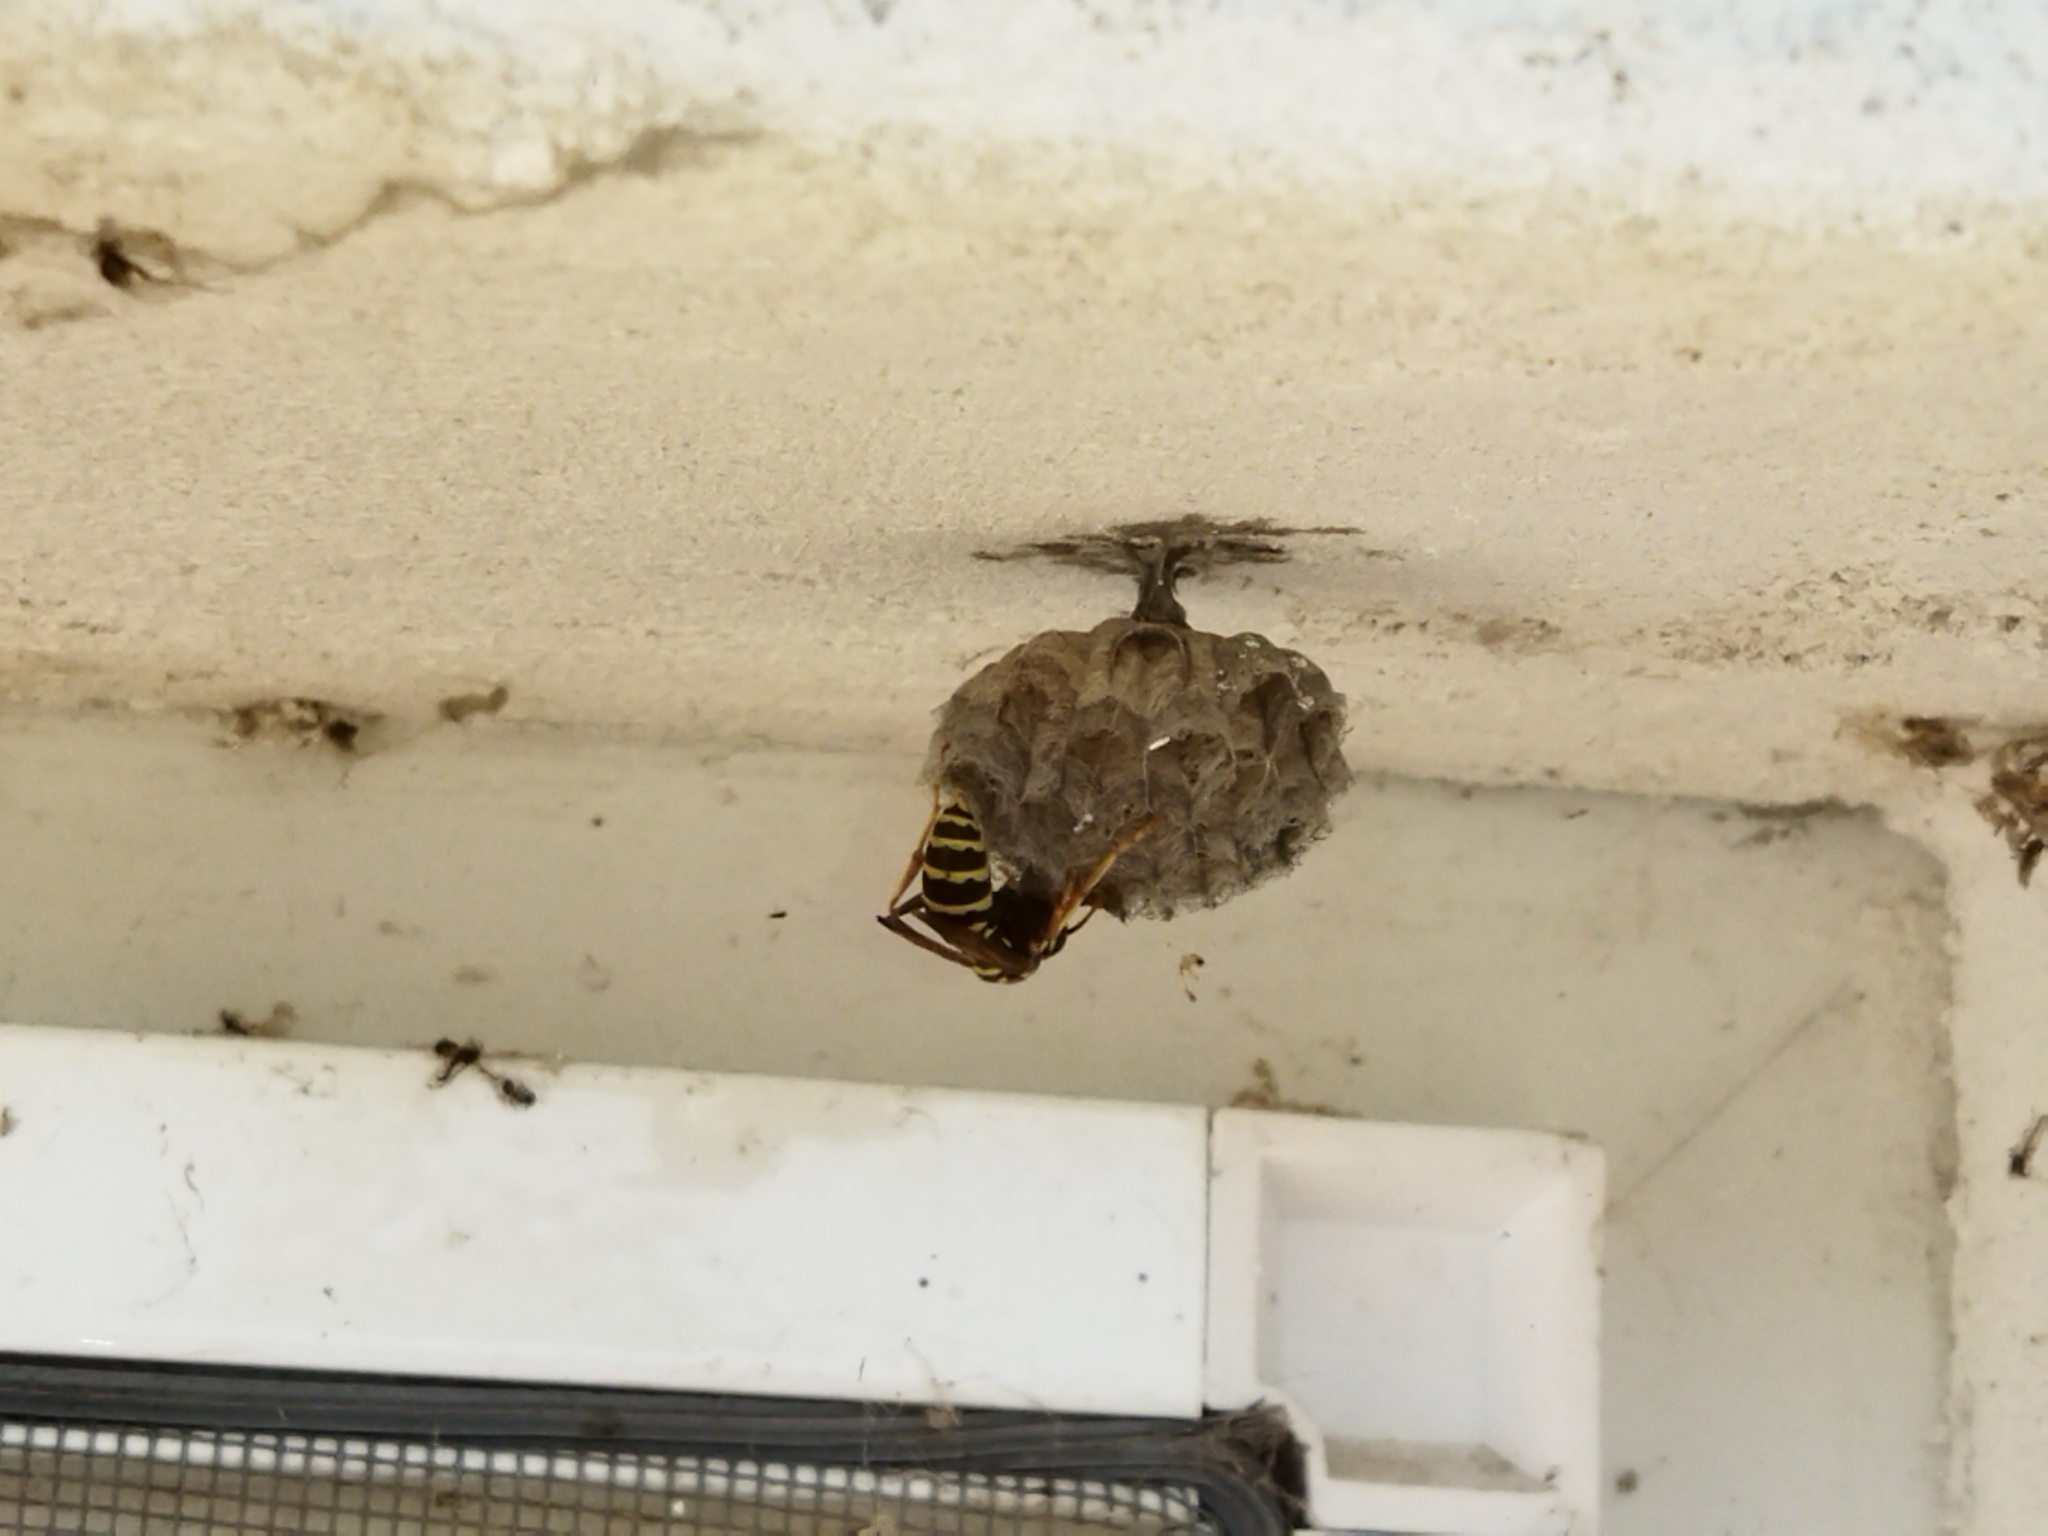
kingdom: Animalia
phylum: Arthropoda
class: Insecta
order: Hymenoptera
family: Eumenidae
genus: Polistes
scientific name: Polistes dominula
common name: Paper wasp
